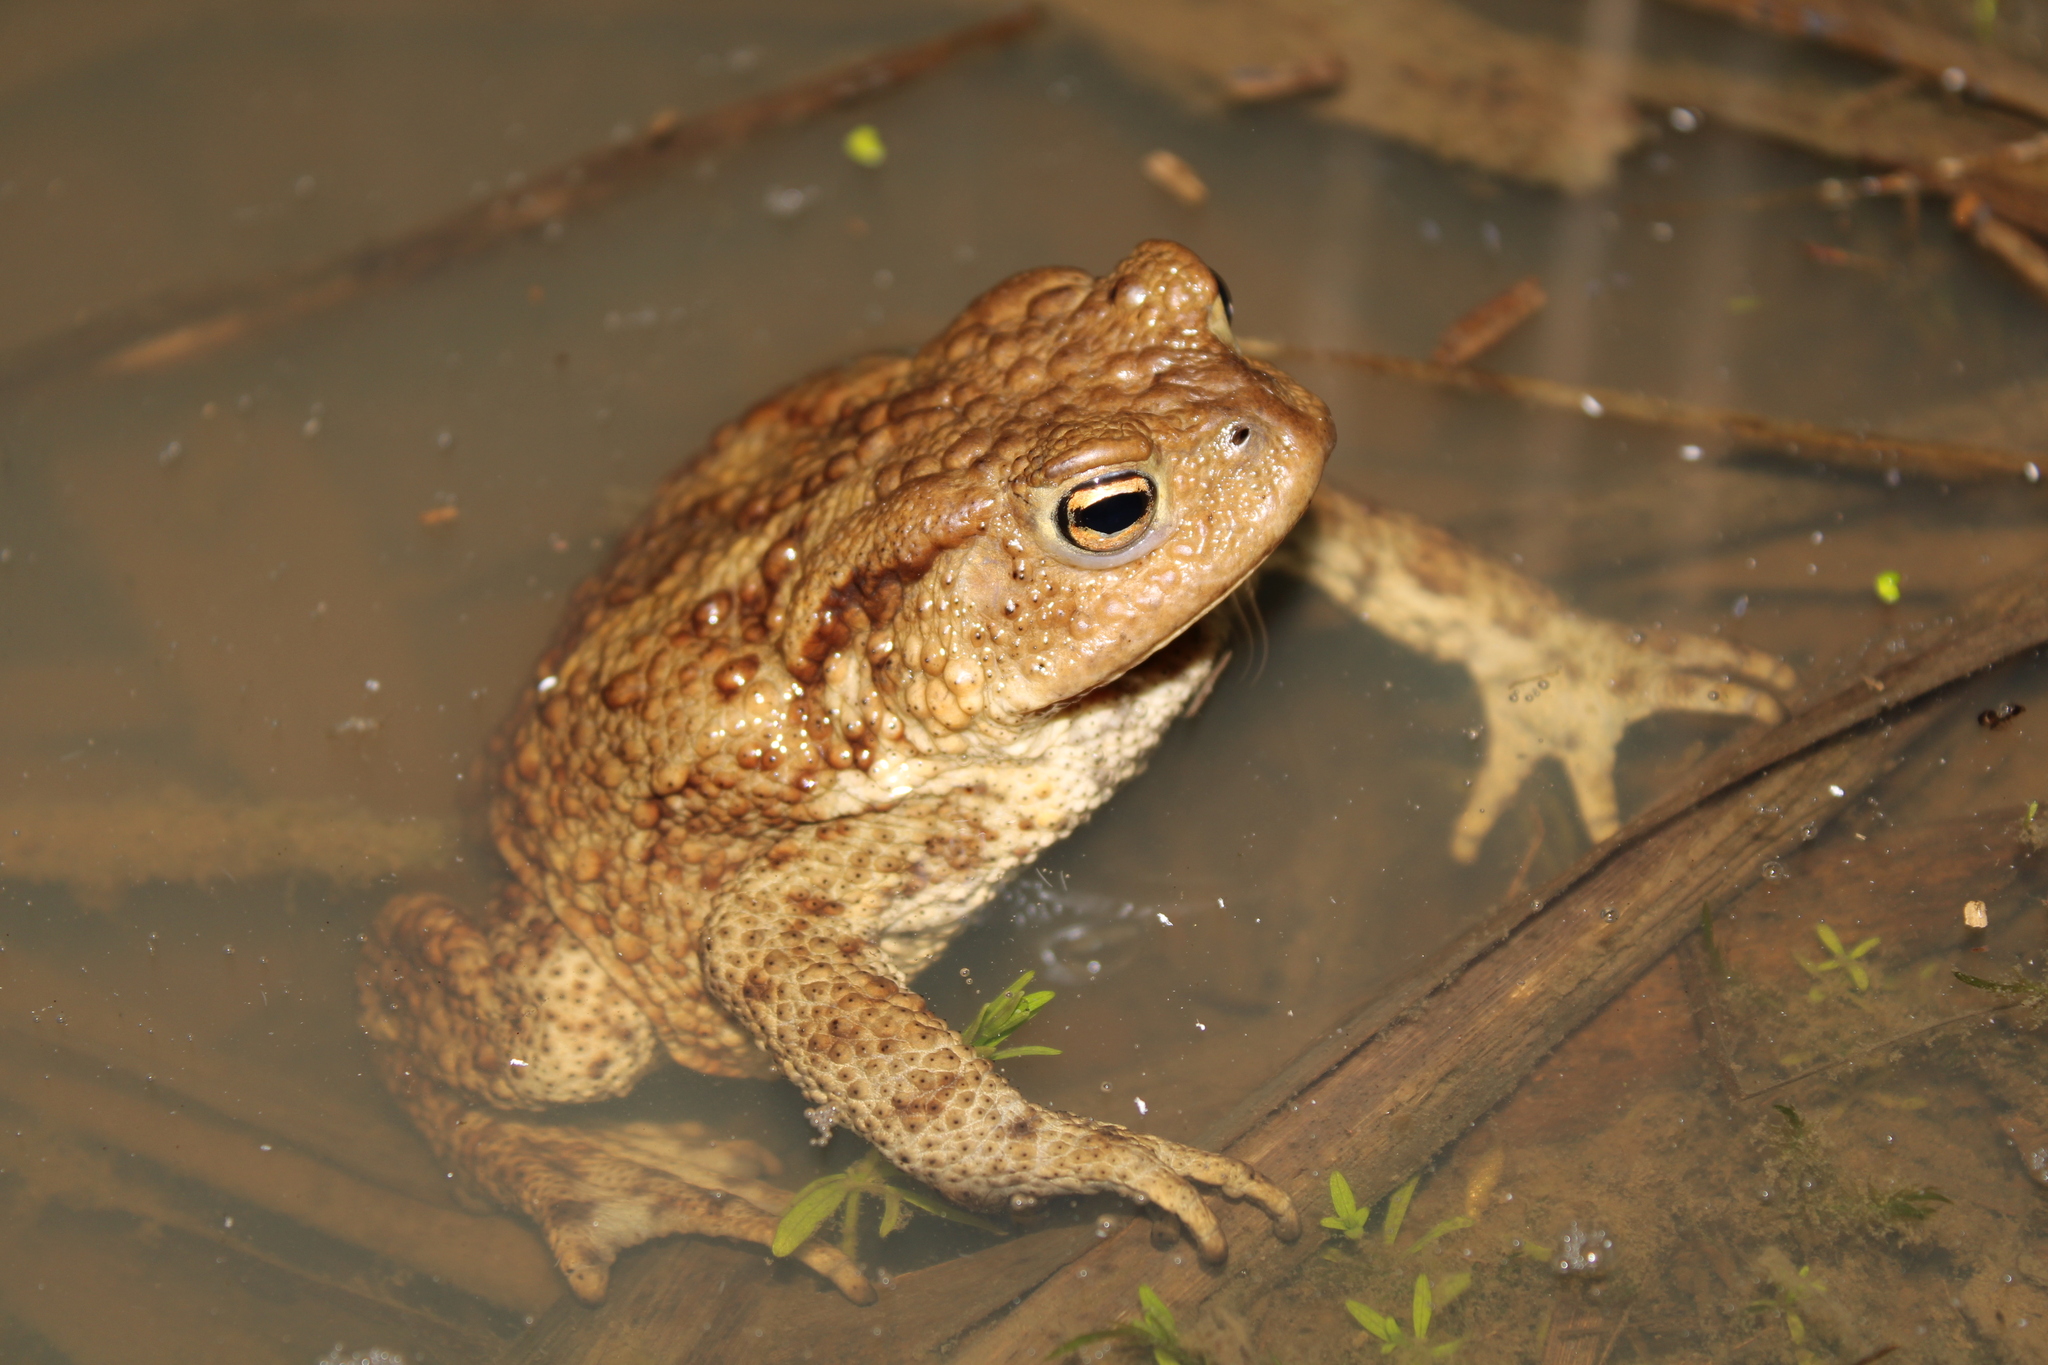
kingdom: Animalia
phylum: Chordata
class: Amphibia
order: Anura
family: Bufonidae
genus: Bufo
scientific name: Bufo bufo
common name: Common toad
